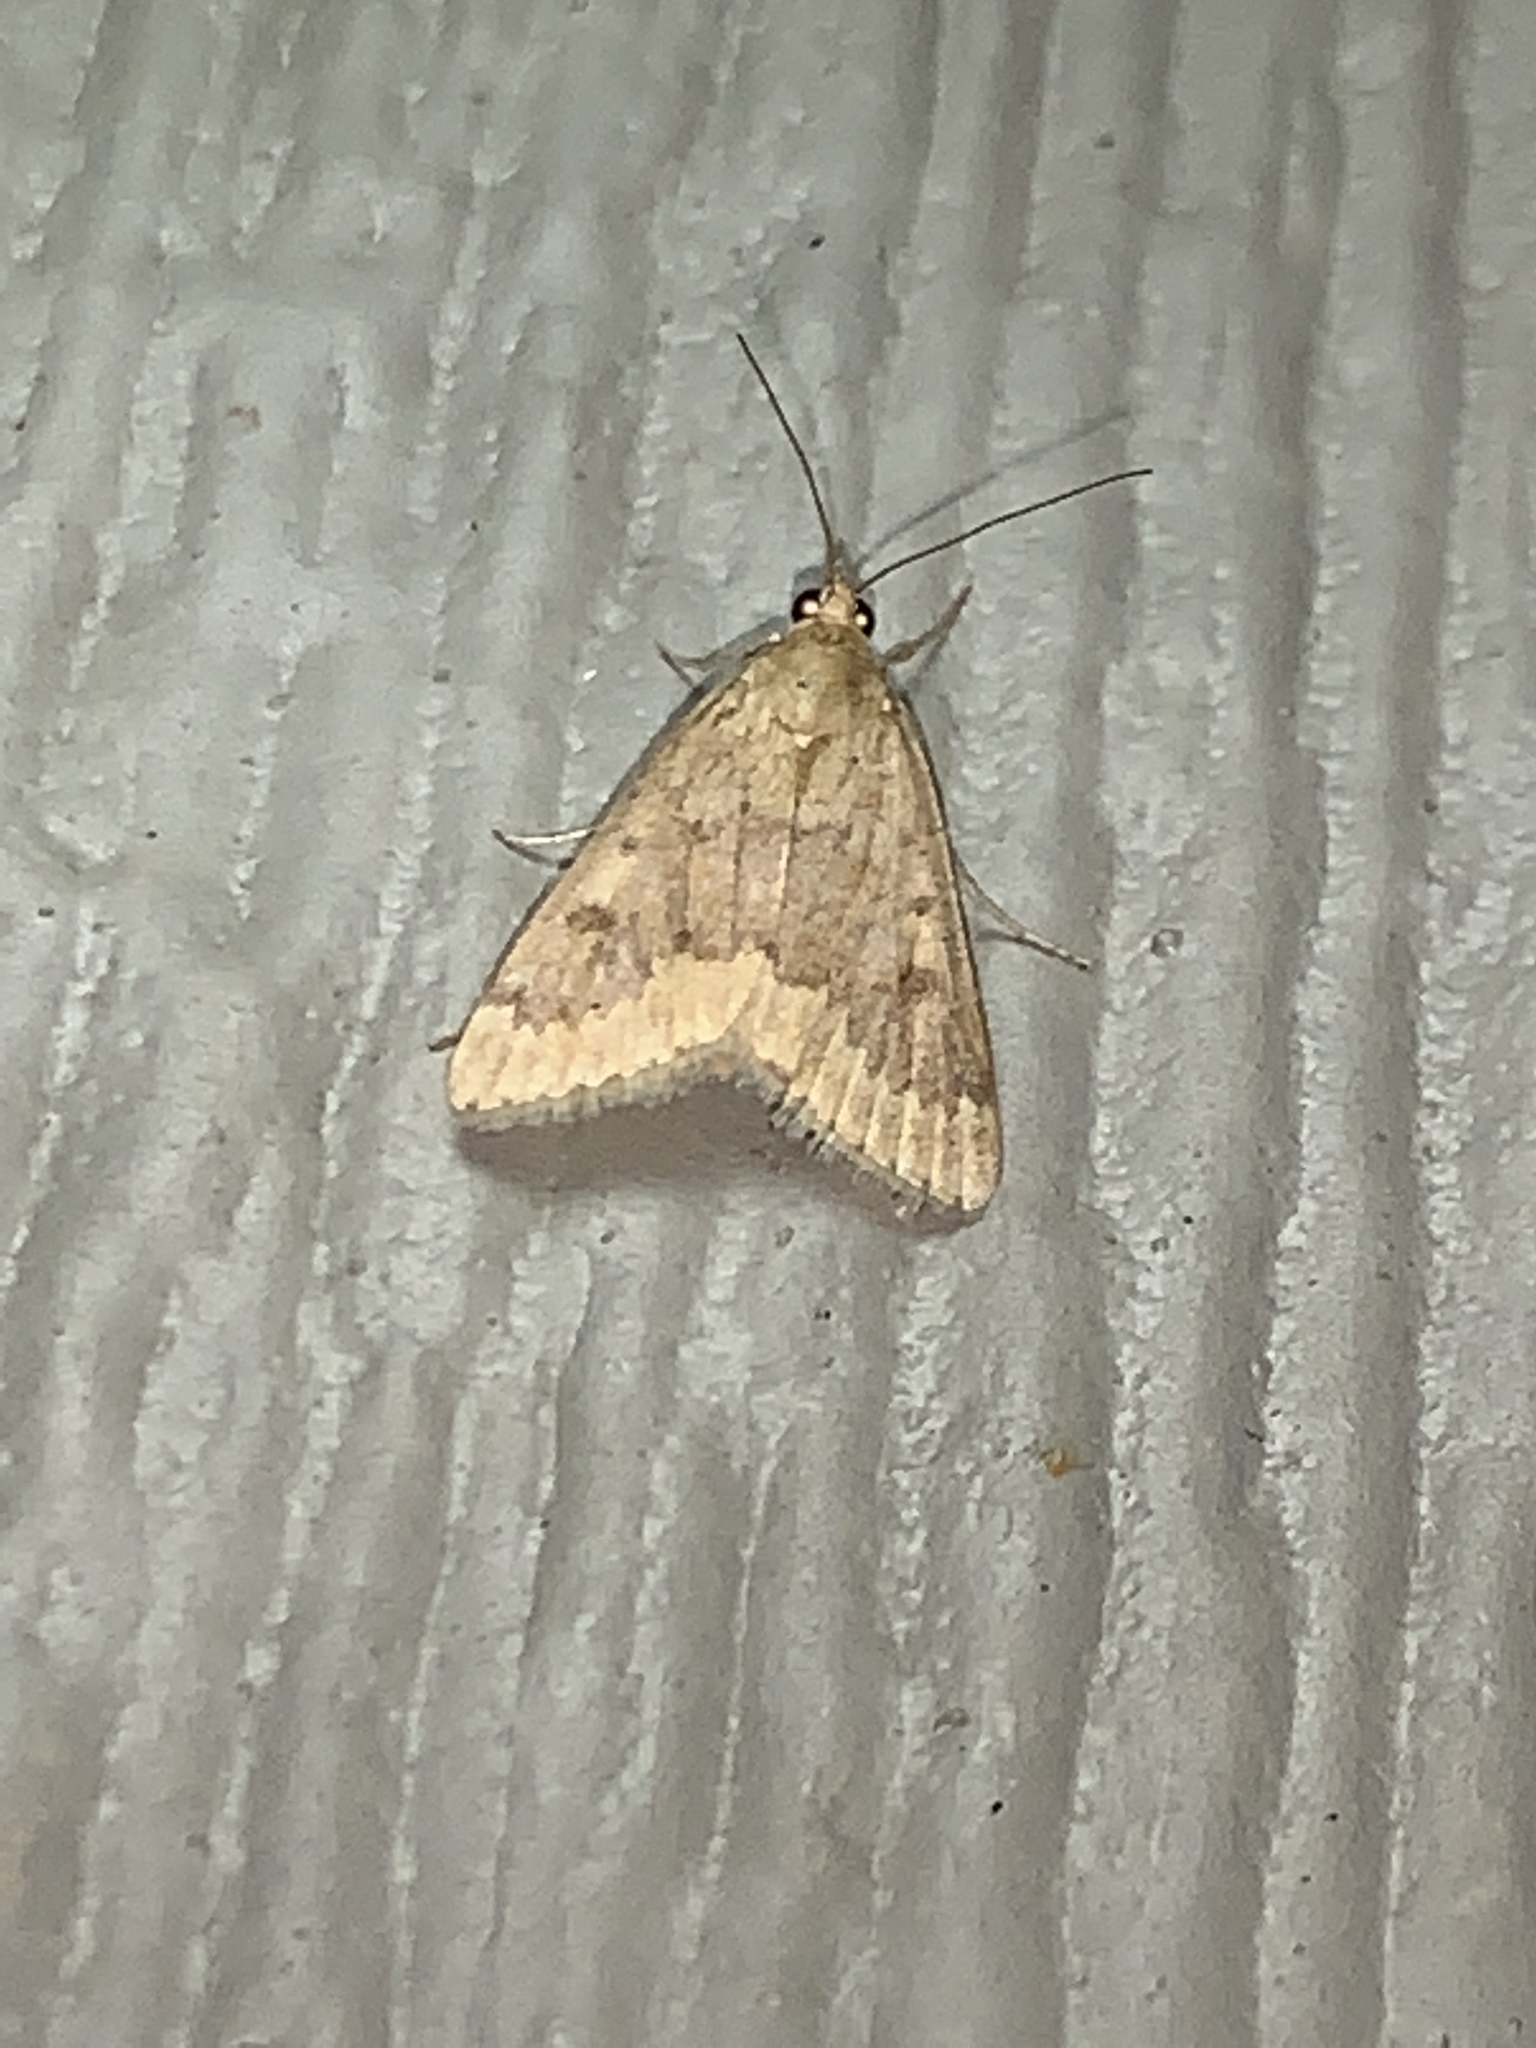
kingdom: Animalia
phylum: Arthropoda
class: Insecta
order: Lepidoptera
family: Crambidae
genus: Achyra
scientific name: Achyra rantalis
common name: Garden webworm
